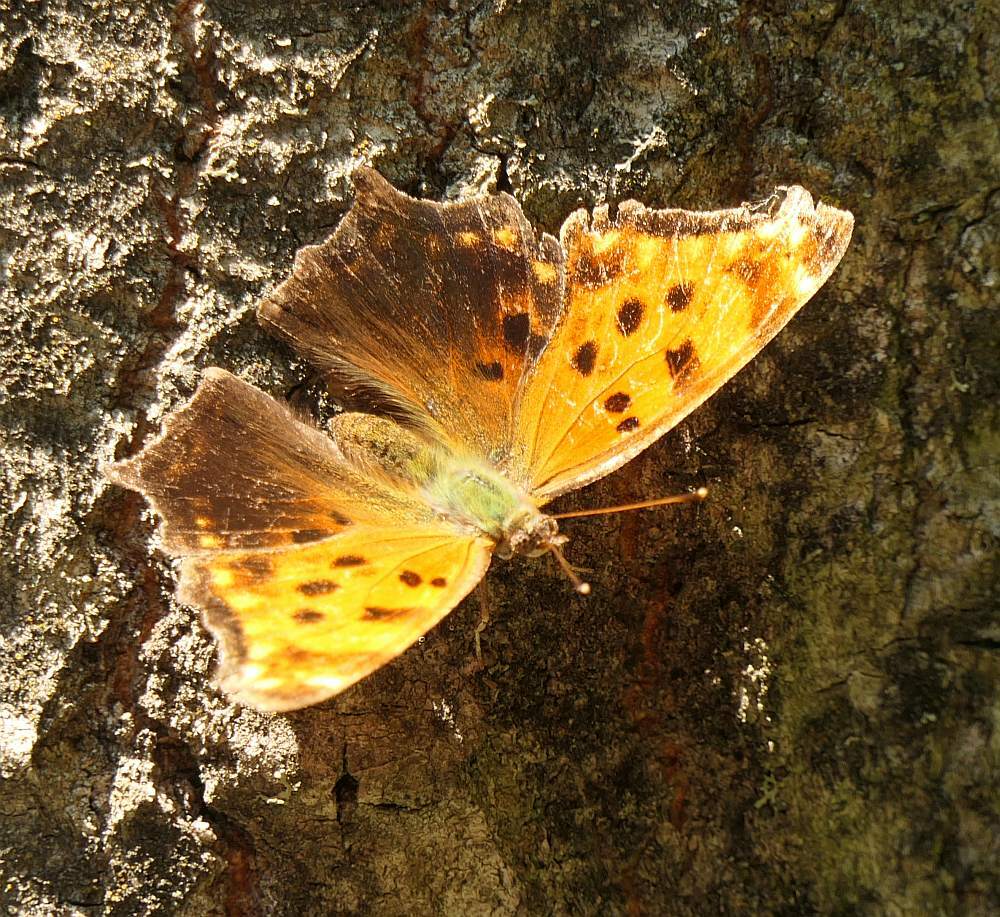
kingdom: Animalia
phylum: Arthropoda
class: Insecta
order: Lepidoptera
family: Nymphalidae
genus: Polygonia
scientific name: Polygonia comma
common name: Eastern comma
